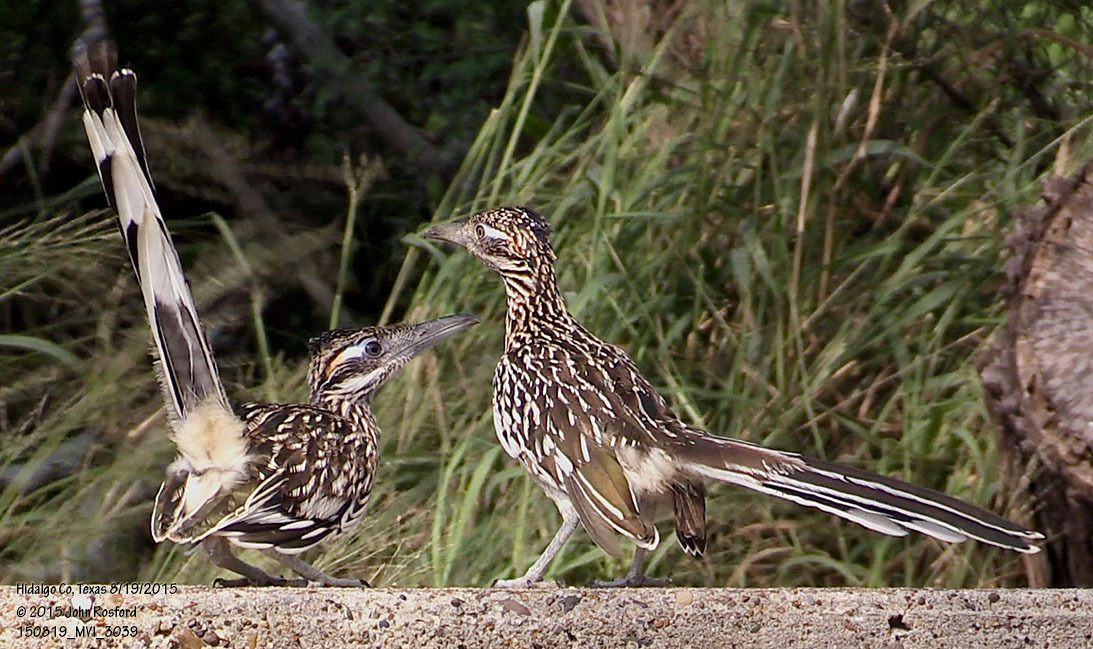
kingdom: Animalia
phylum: Chordata
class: Aves
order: Cuculiformes
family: Cuculidae
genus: Geococcyx
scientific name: Geococcyx californianus
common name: Greater roadrunner
